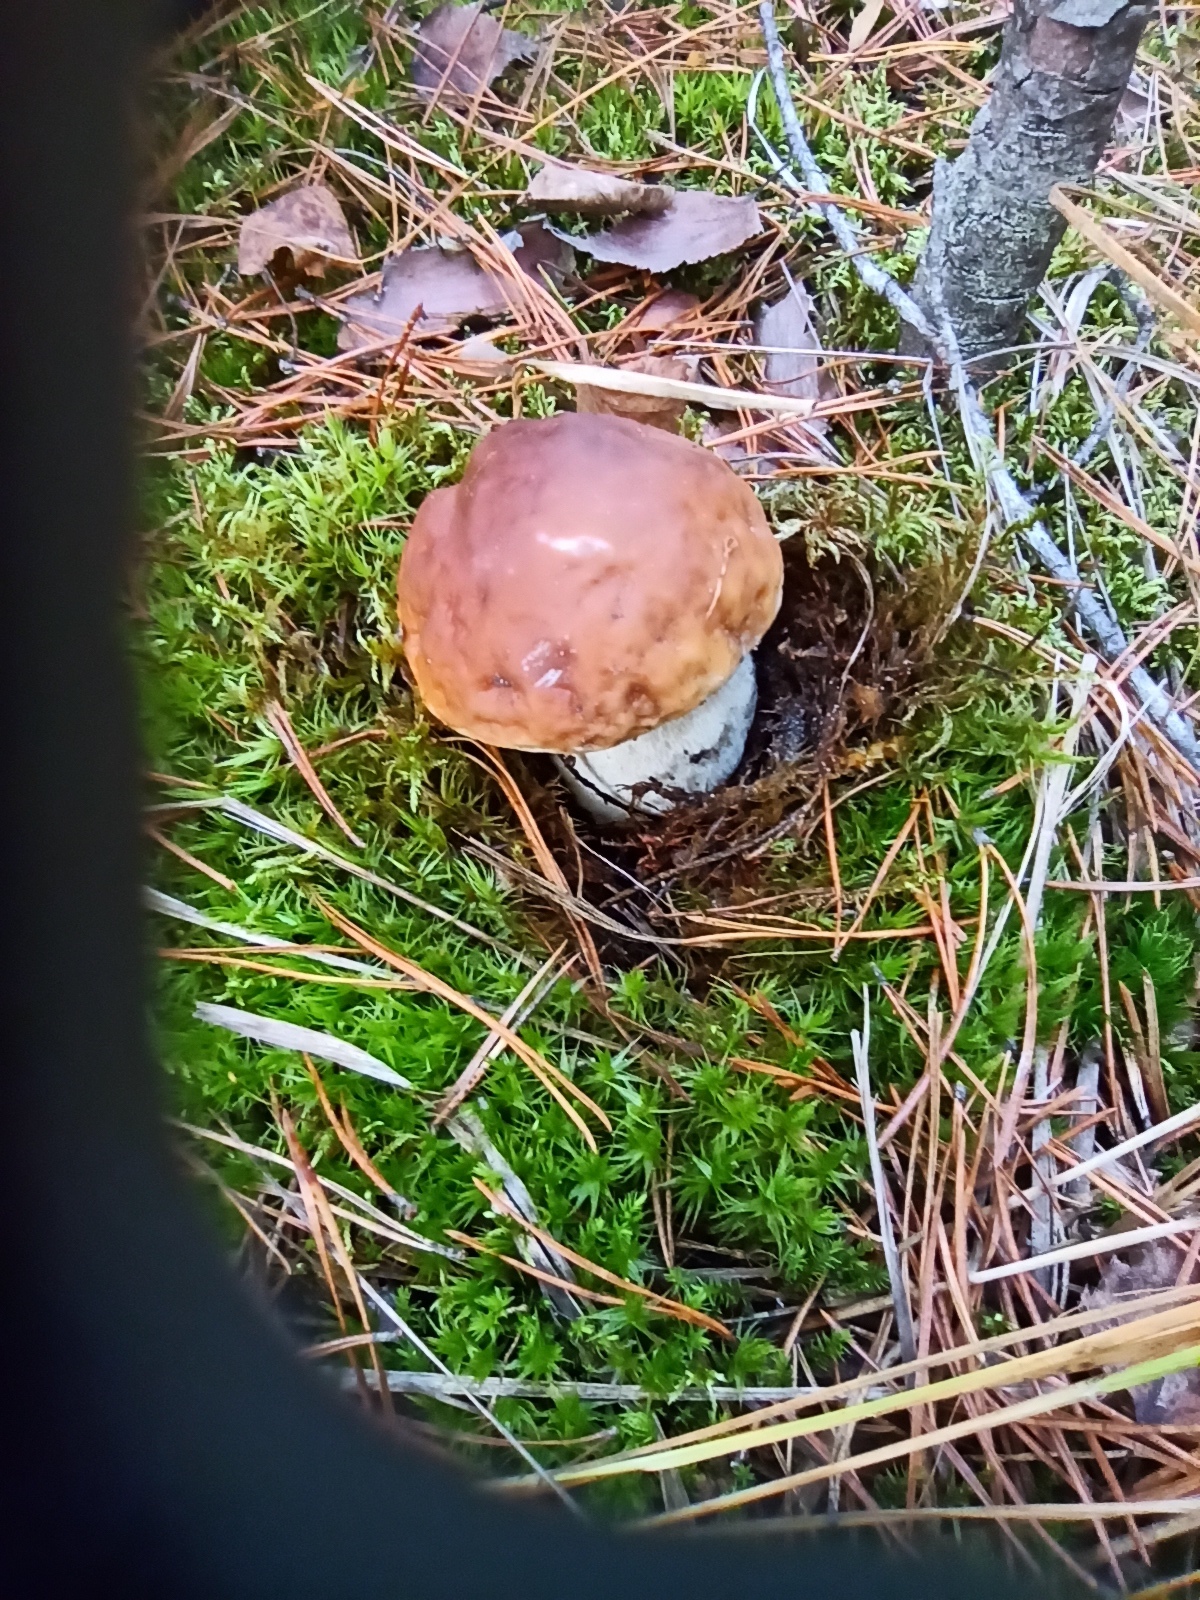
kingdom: Fungi
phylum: Basidiomycota
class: Agaricomycetes
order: Boletales
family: Boletaceae
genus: Boletus
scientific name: Boletus edulis
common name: Cep
